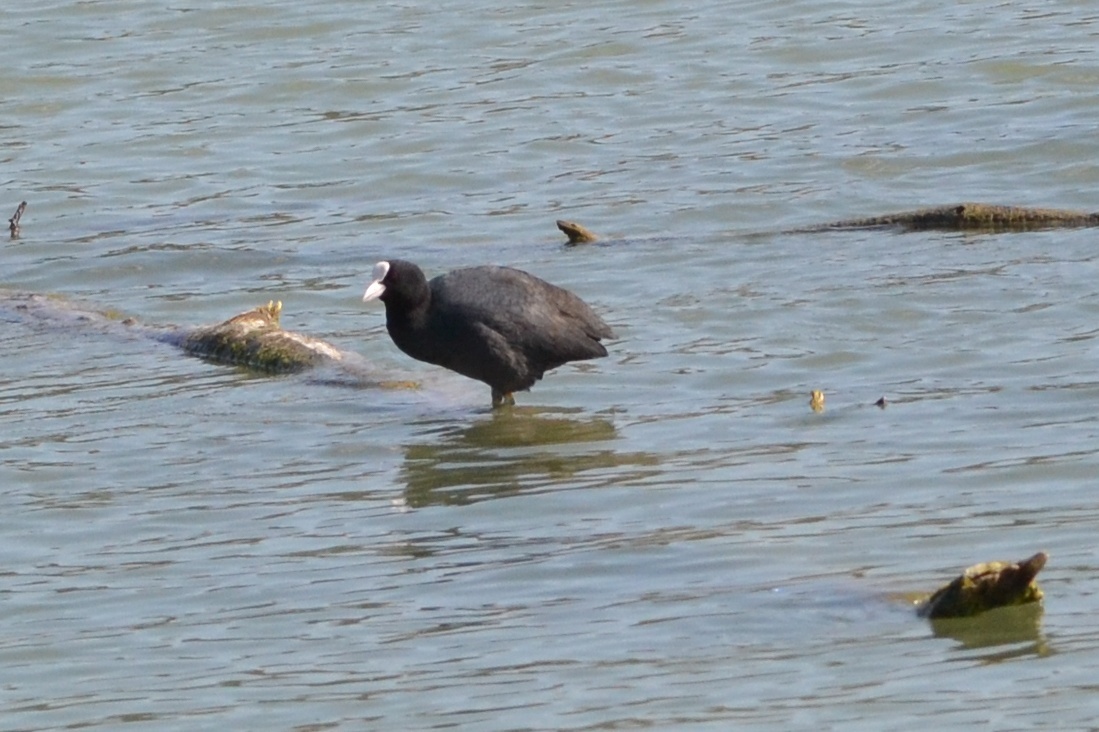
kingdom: Animalia
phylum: Chordata
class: Aves
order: Gruiformes
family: Rallidae
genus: Fulica
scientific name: Fulica atra
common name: Eurasian coot
